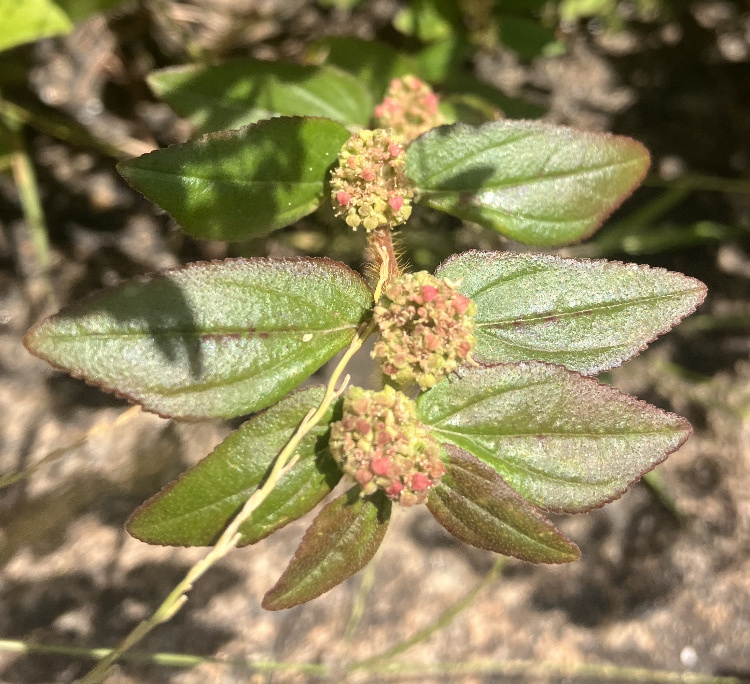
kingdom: Plantae
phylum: Tracheophyta
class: Magnoliopsida
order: Malpighiales
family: Euphorbiaceae
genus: Euphorbia
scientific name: Euphorbia hirta
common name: Pillpod sandmat
